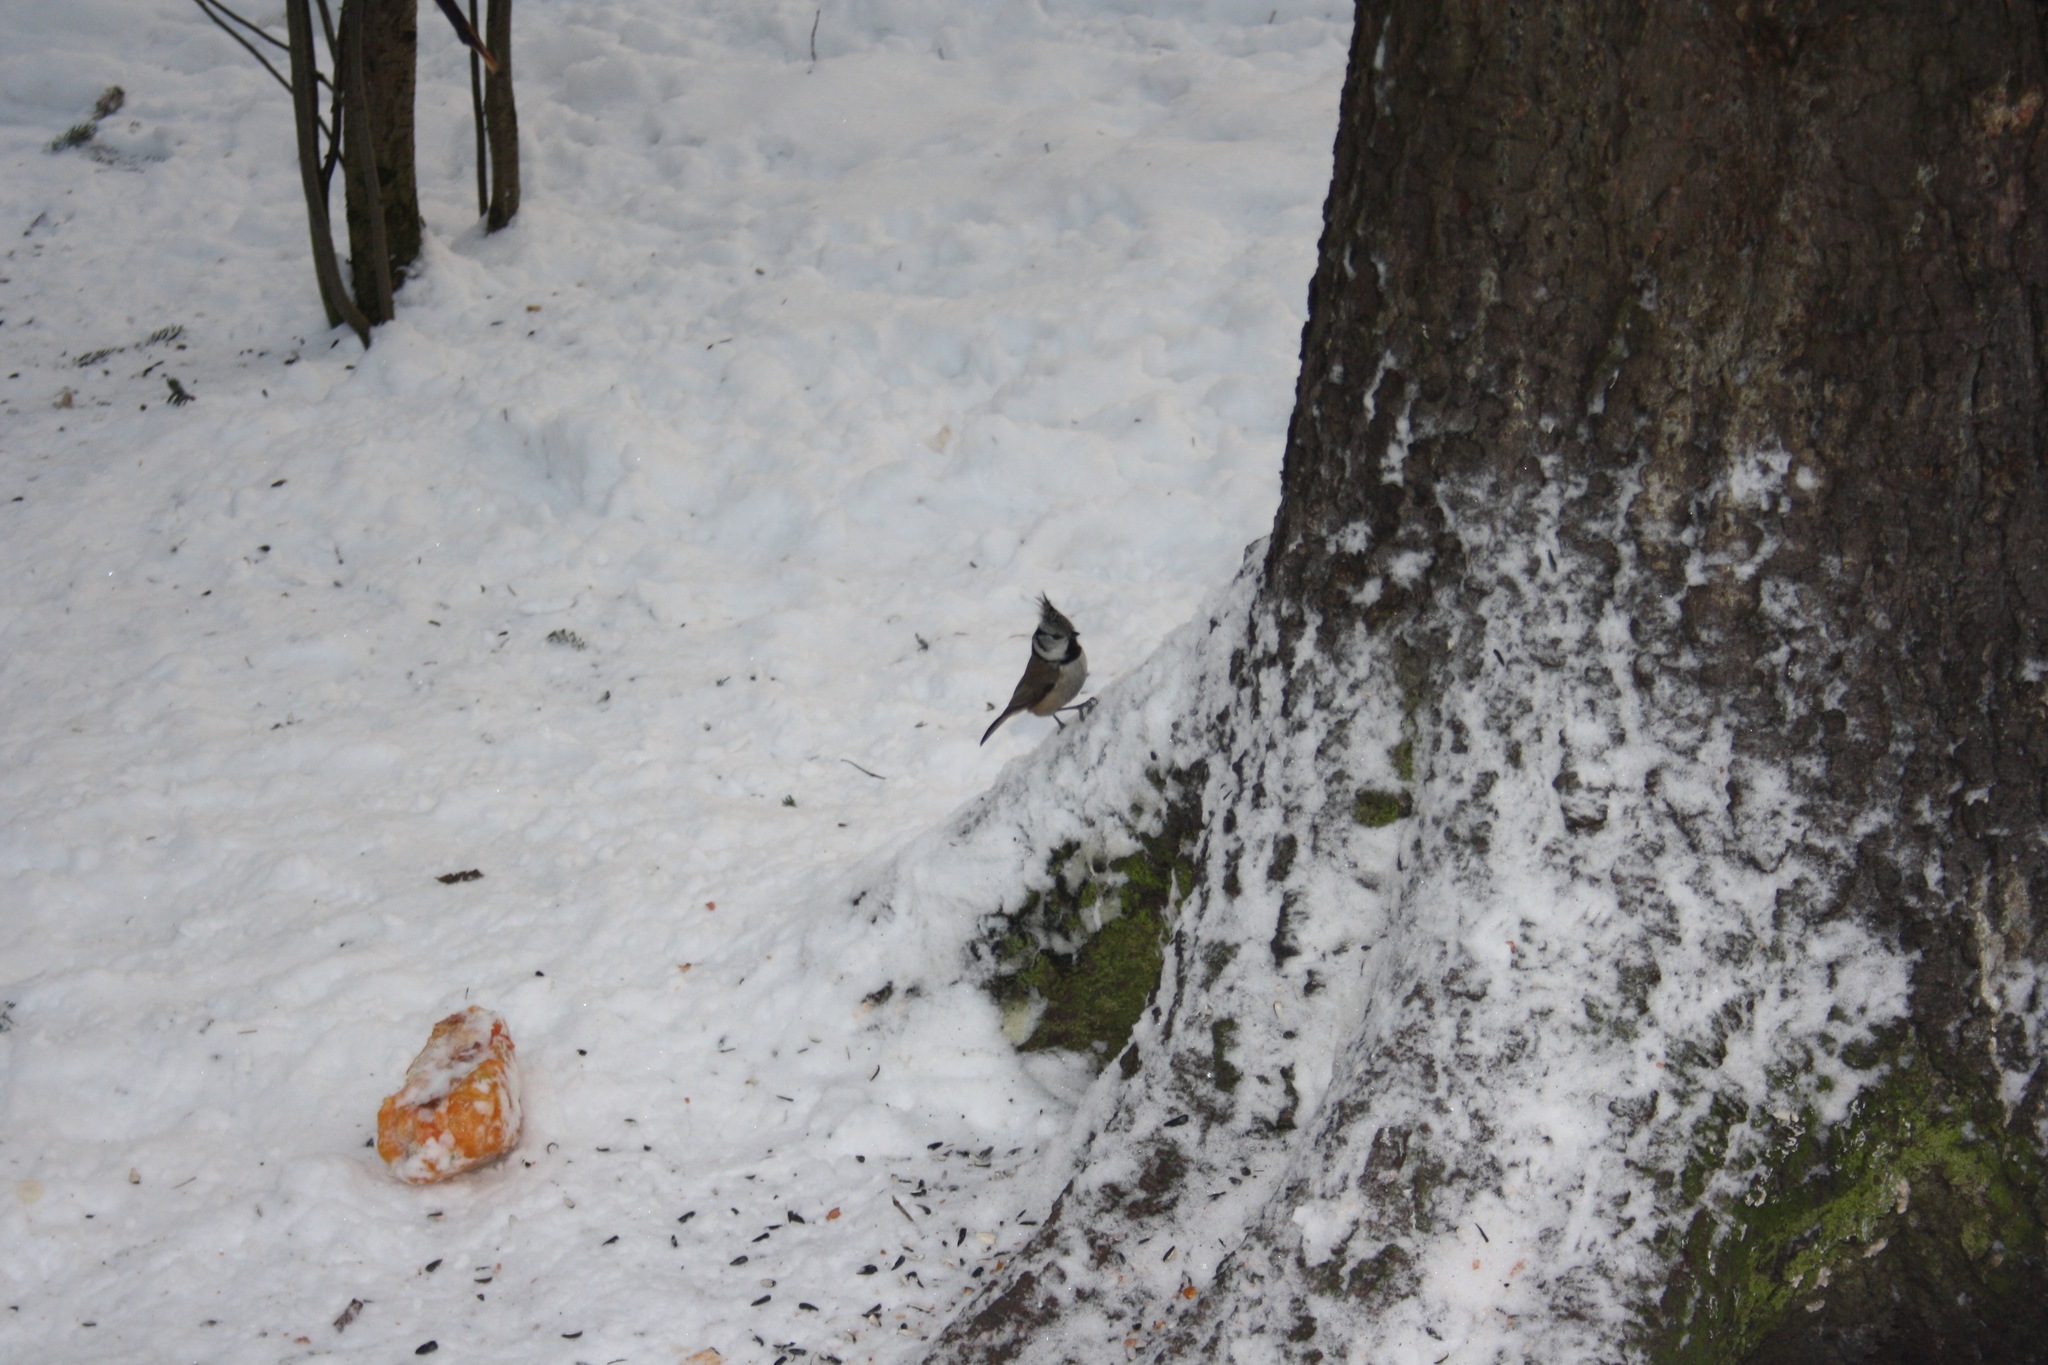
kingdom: Animalia
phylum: Chordata
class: Aves
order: Passeriformes
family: Paridae
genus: Lophophanes
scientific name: Lophophanes cristatus
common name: European crested tit
